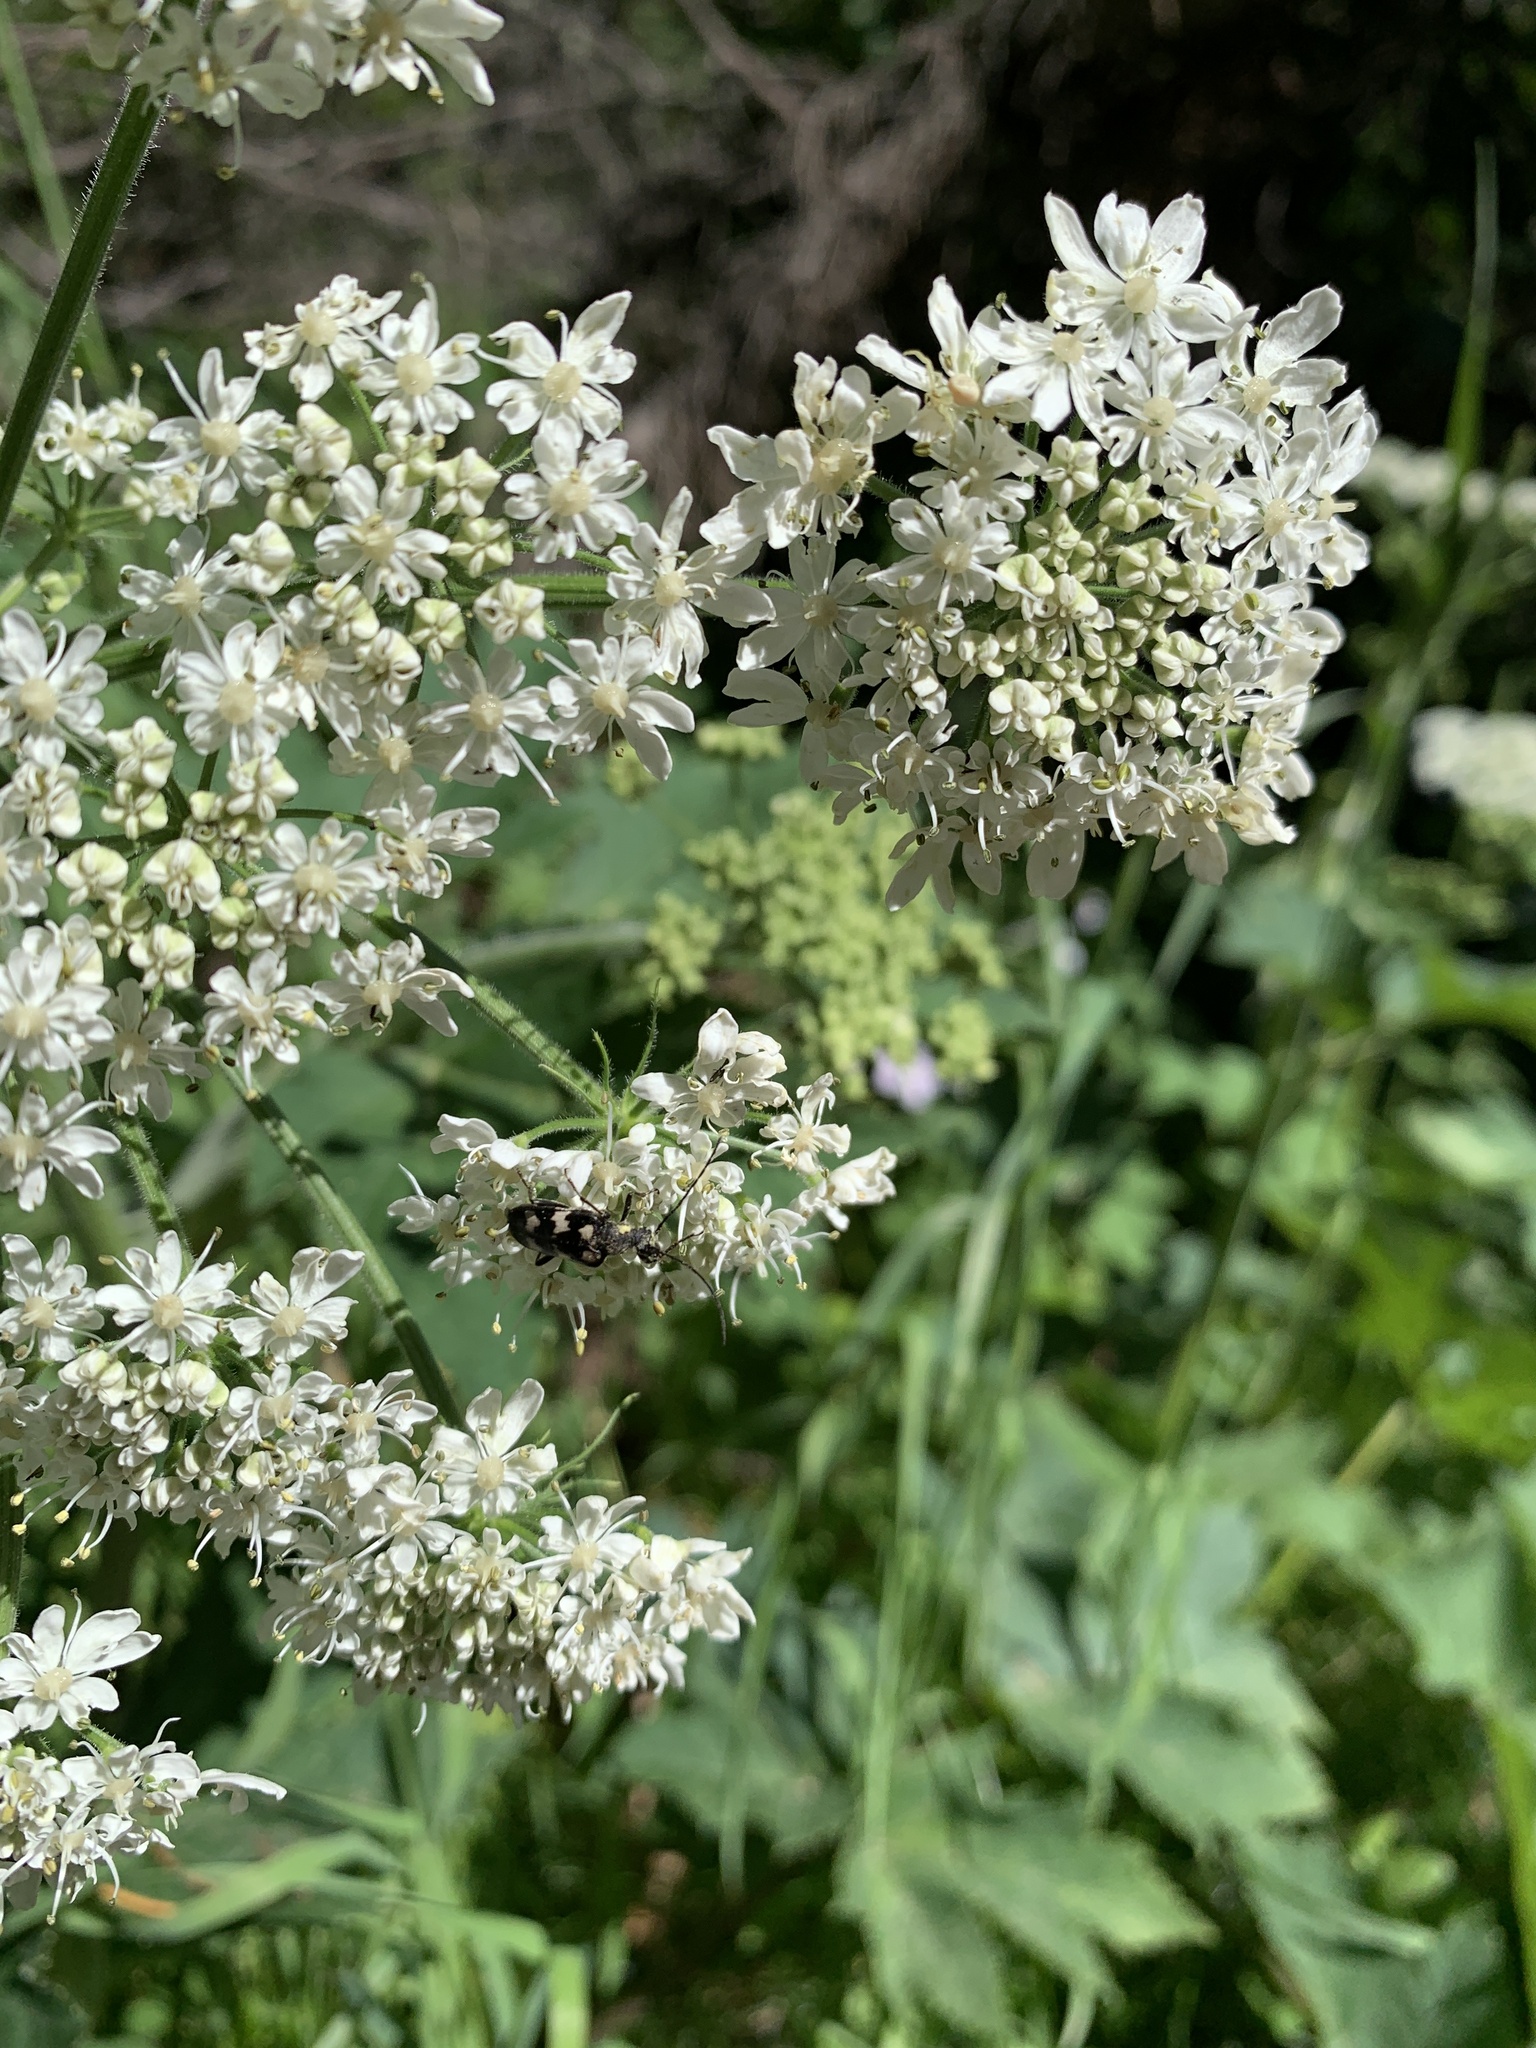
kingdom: Plantae
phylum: Tracheophyta
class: Magnoliopsida
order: Apiales
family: Apiaceae
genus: Heracleum
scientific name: Heracleum maximum
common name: American cow parsnip
